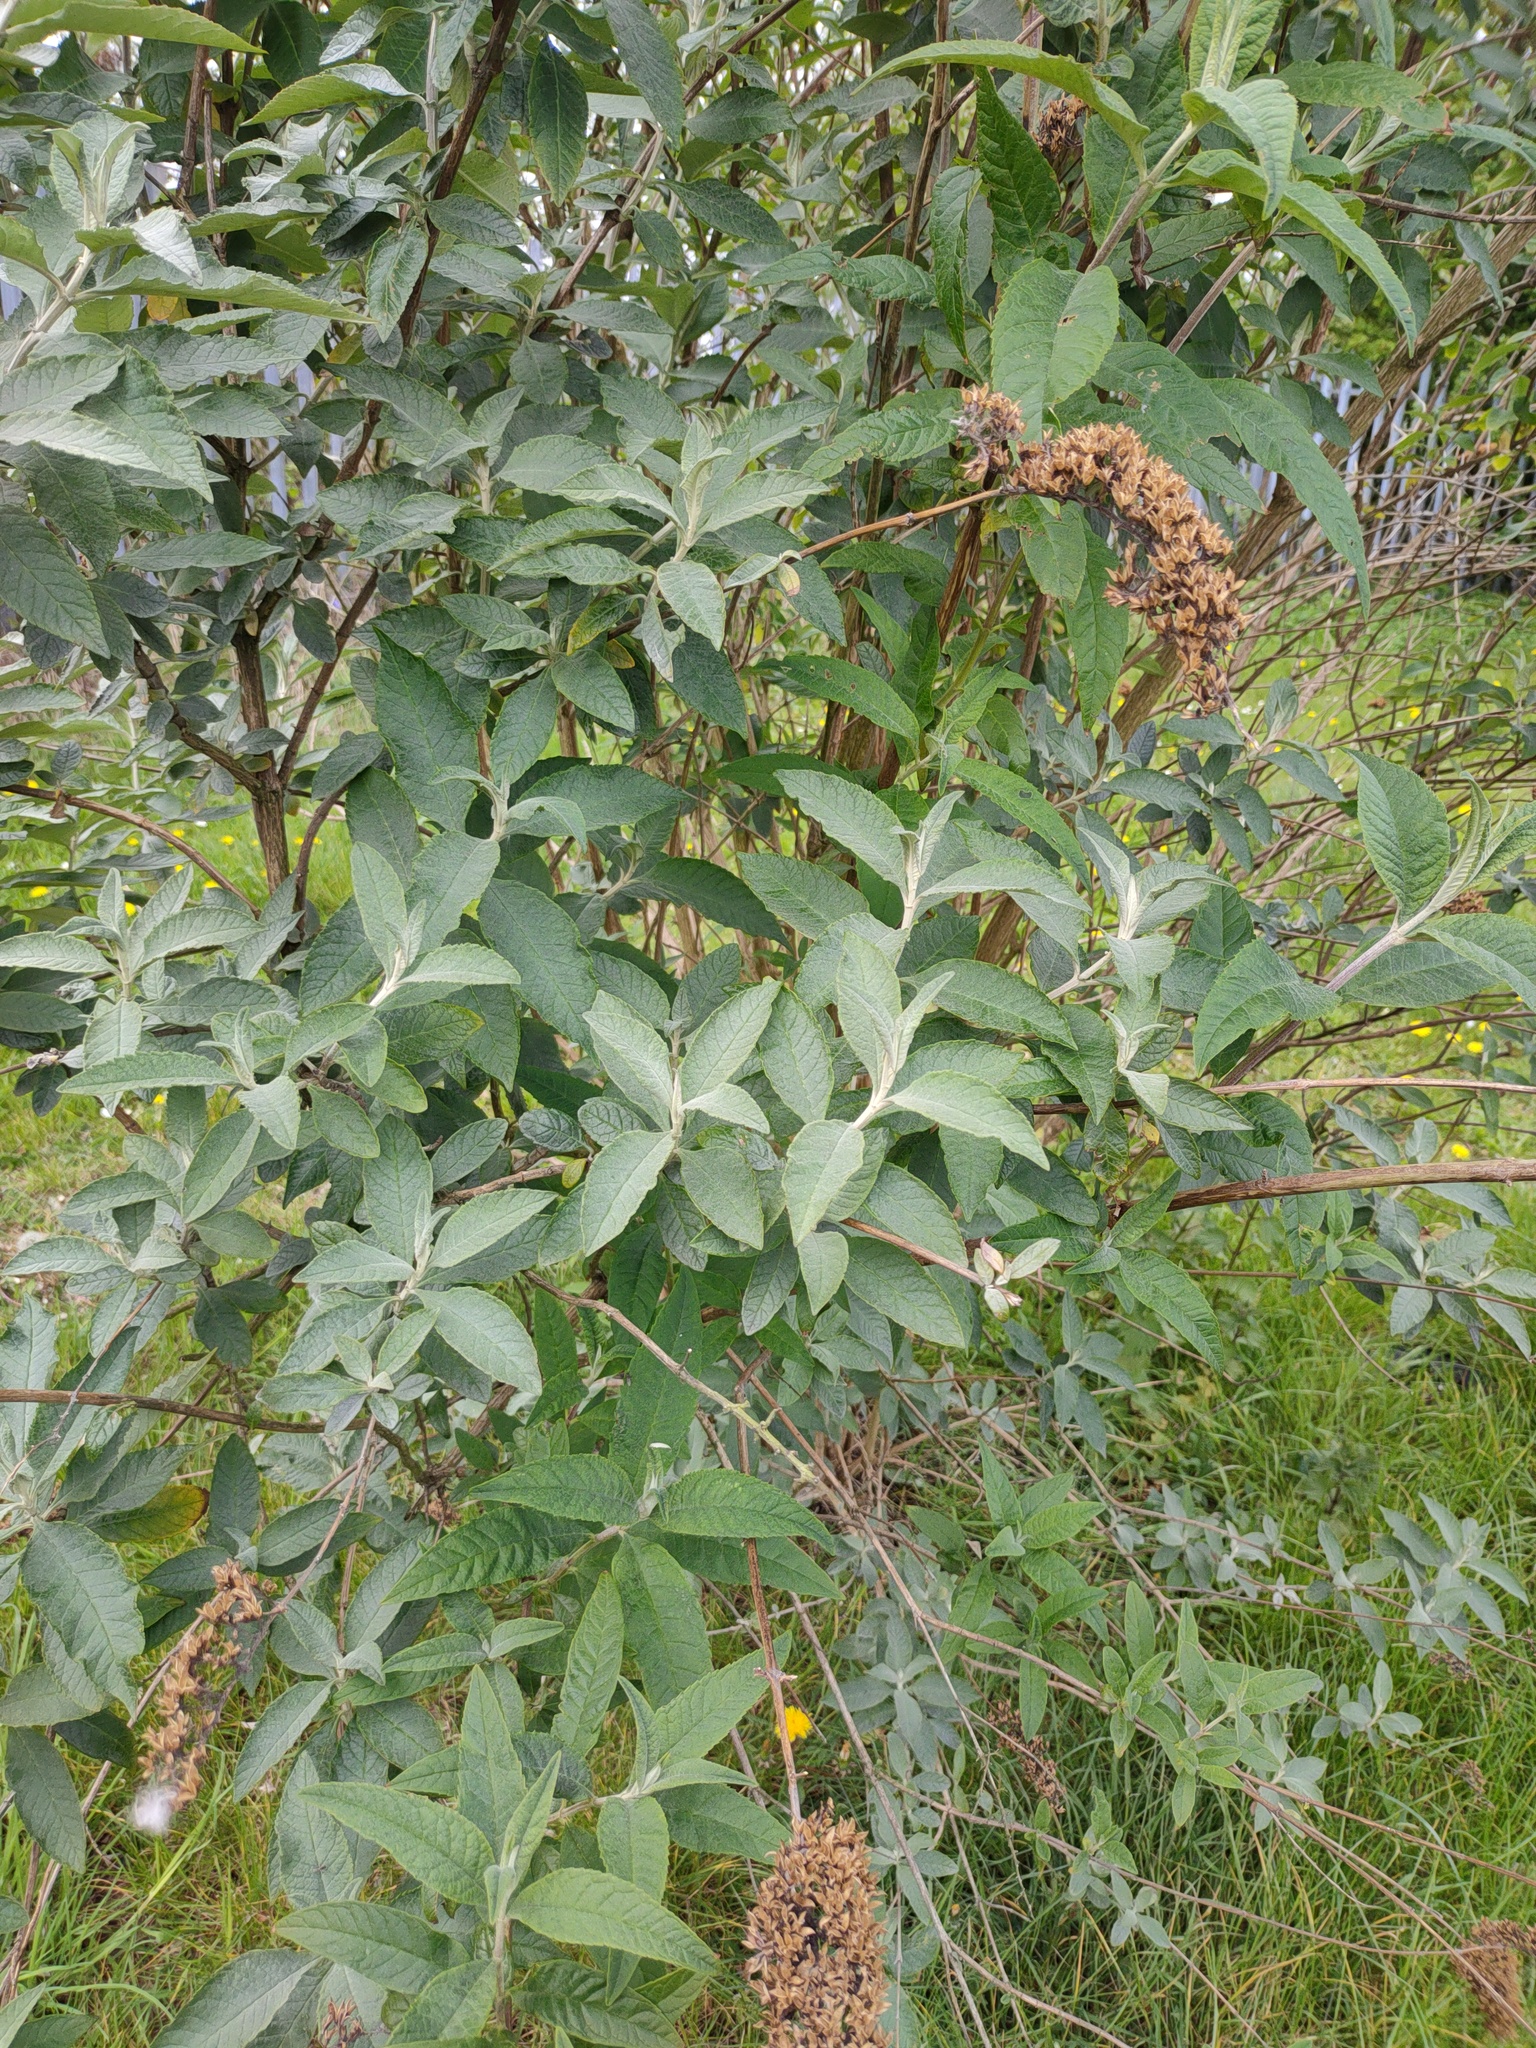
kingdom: Plantae
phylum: Tracheophyta
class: Magnoliopsida
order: Lamiales
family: Scrophulariaceae
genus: Buddleja
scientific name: Buddleja davidii
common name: Butterfly-bush
